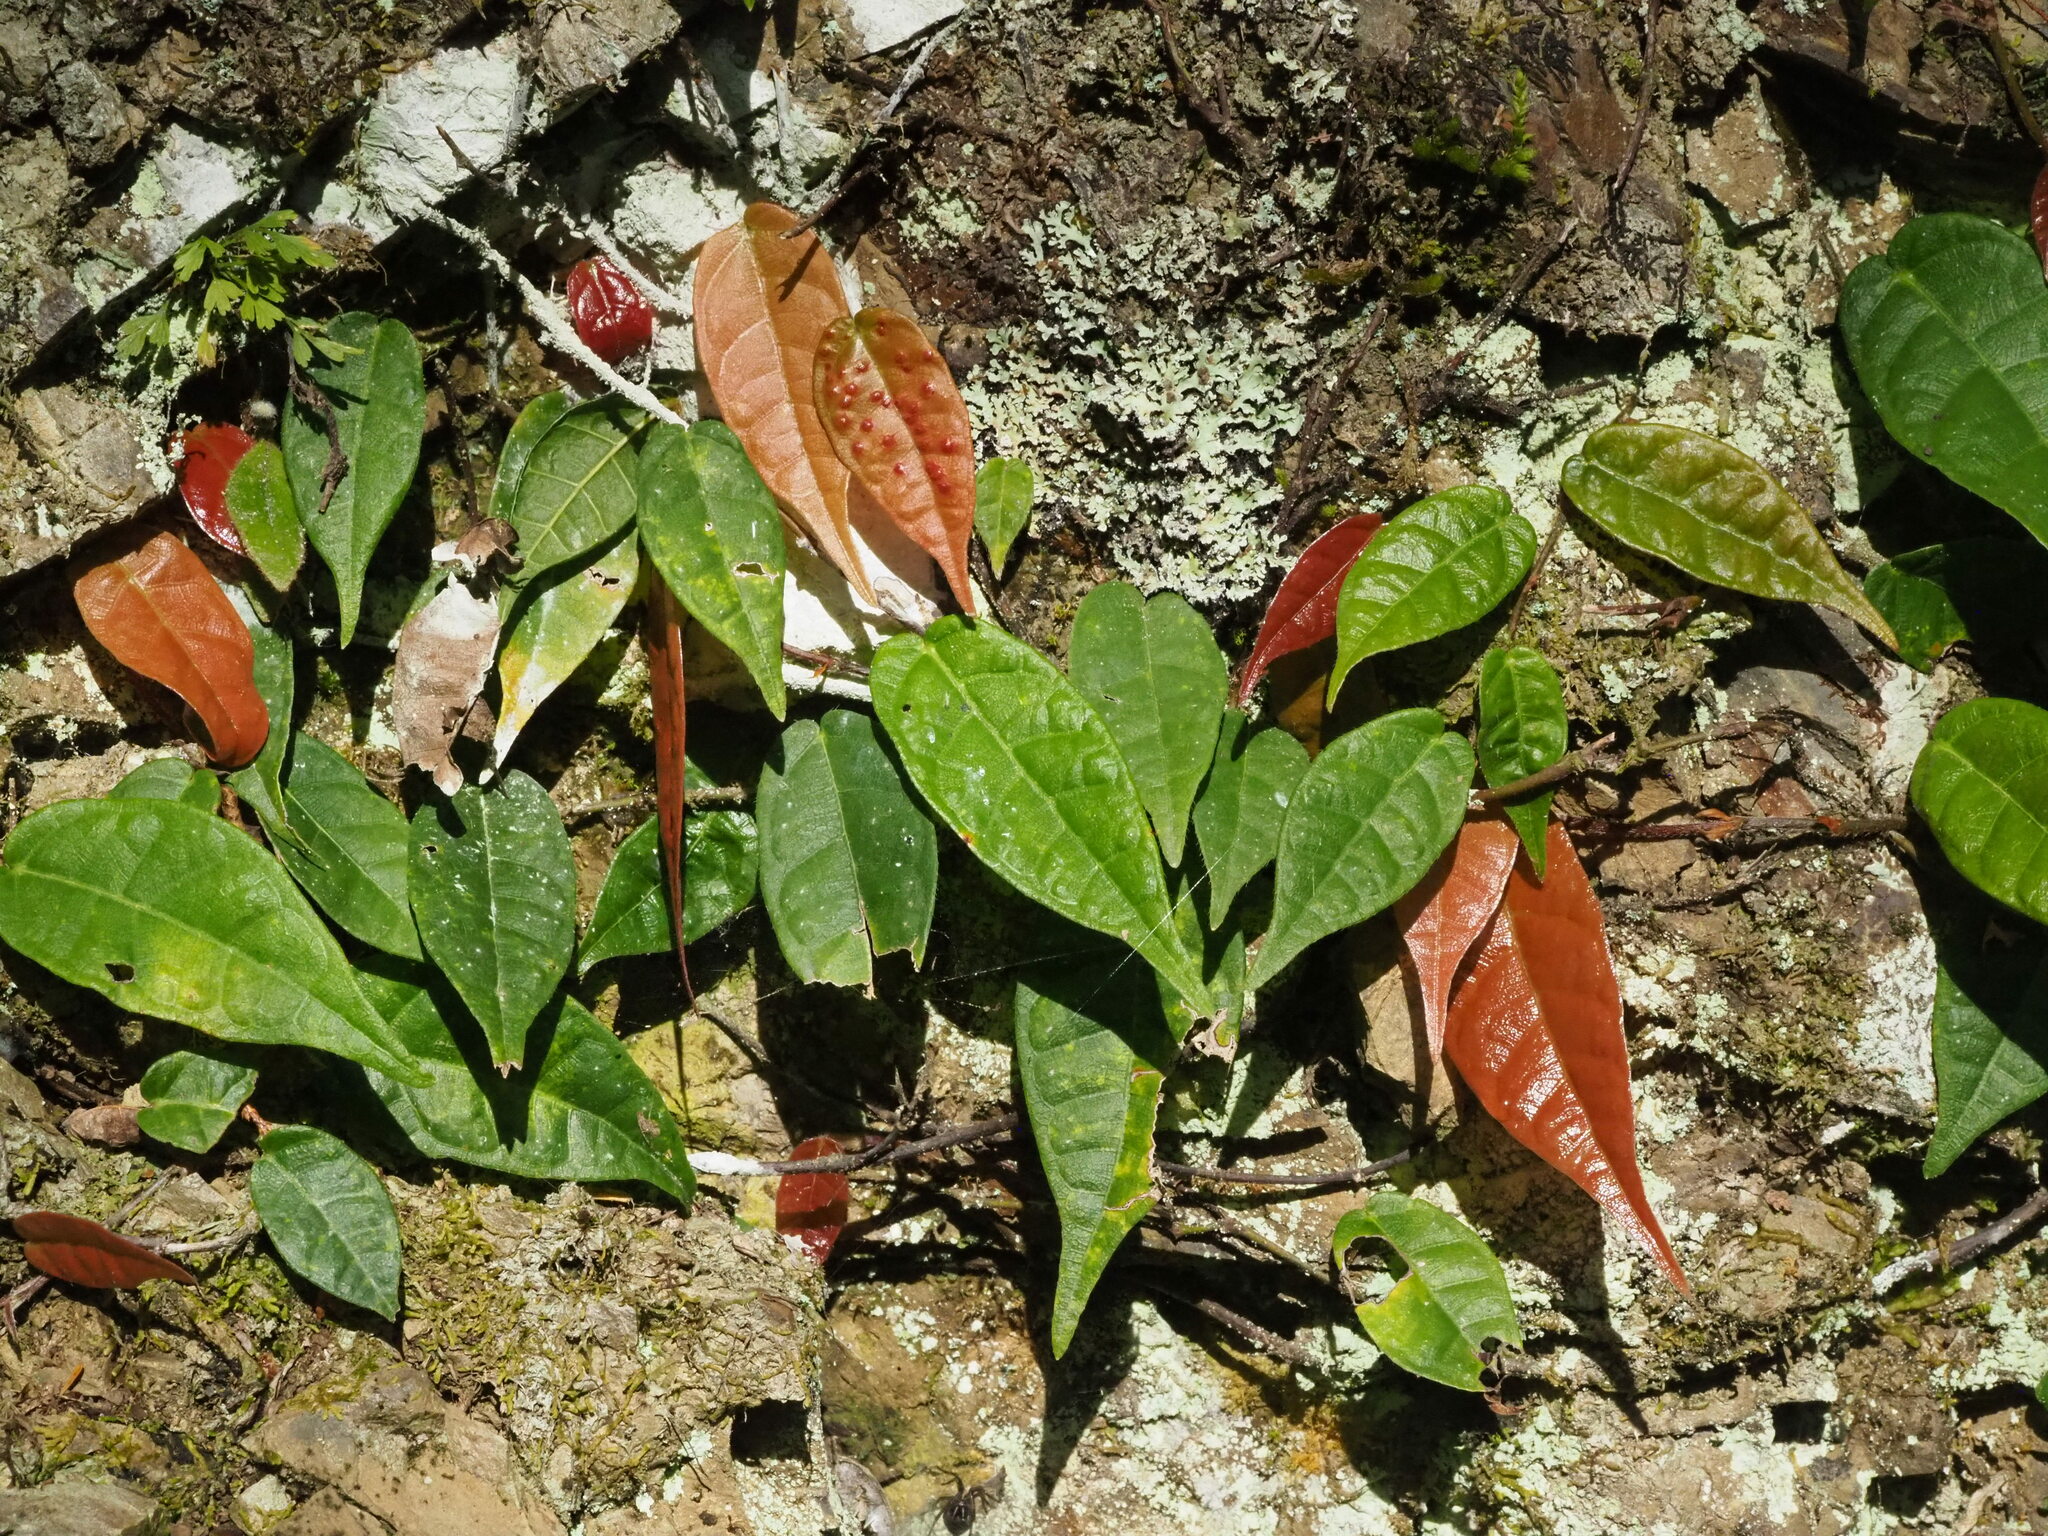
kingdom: Plantae
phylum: Tracheophyta
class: Magnoliopsida
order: Rosales
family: Moraceae
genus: Ficus
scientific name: Ficus sarmentosa
